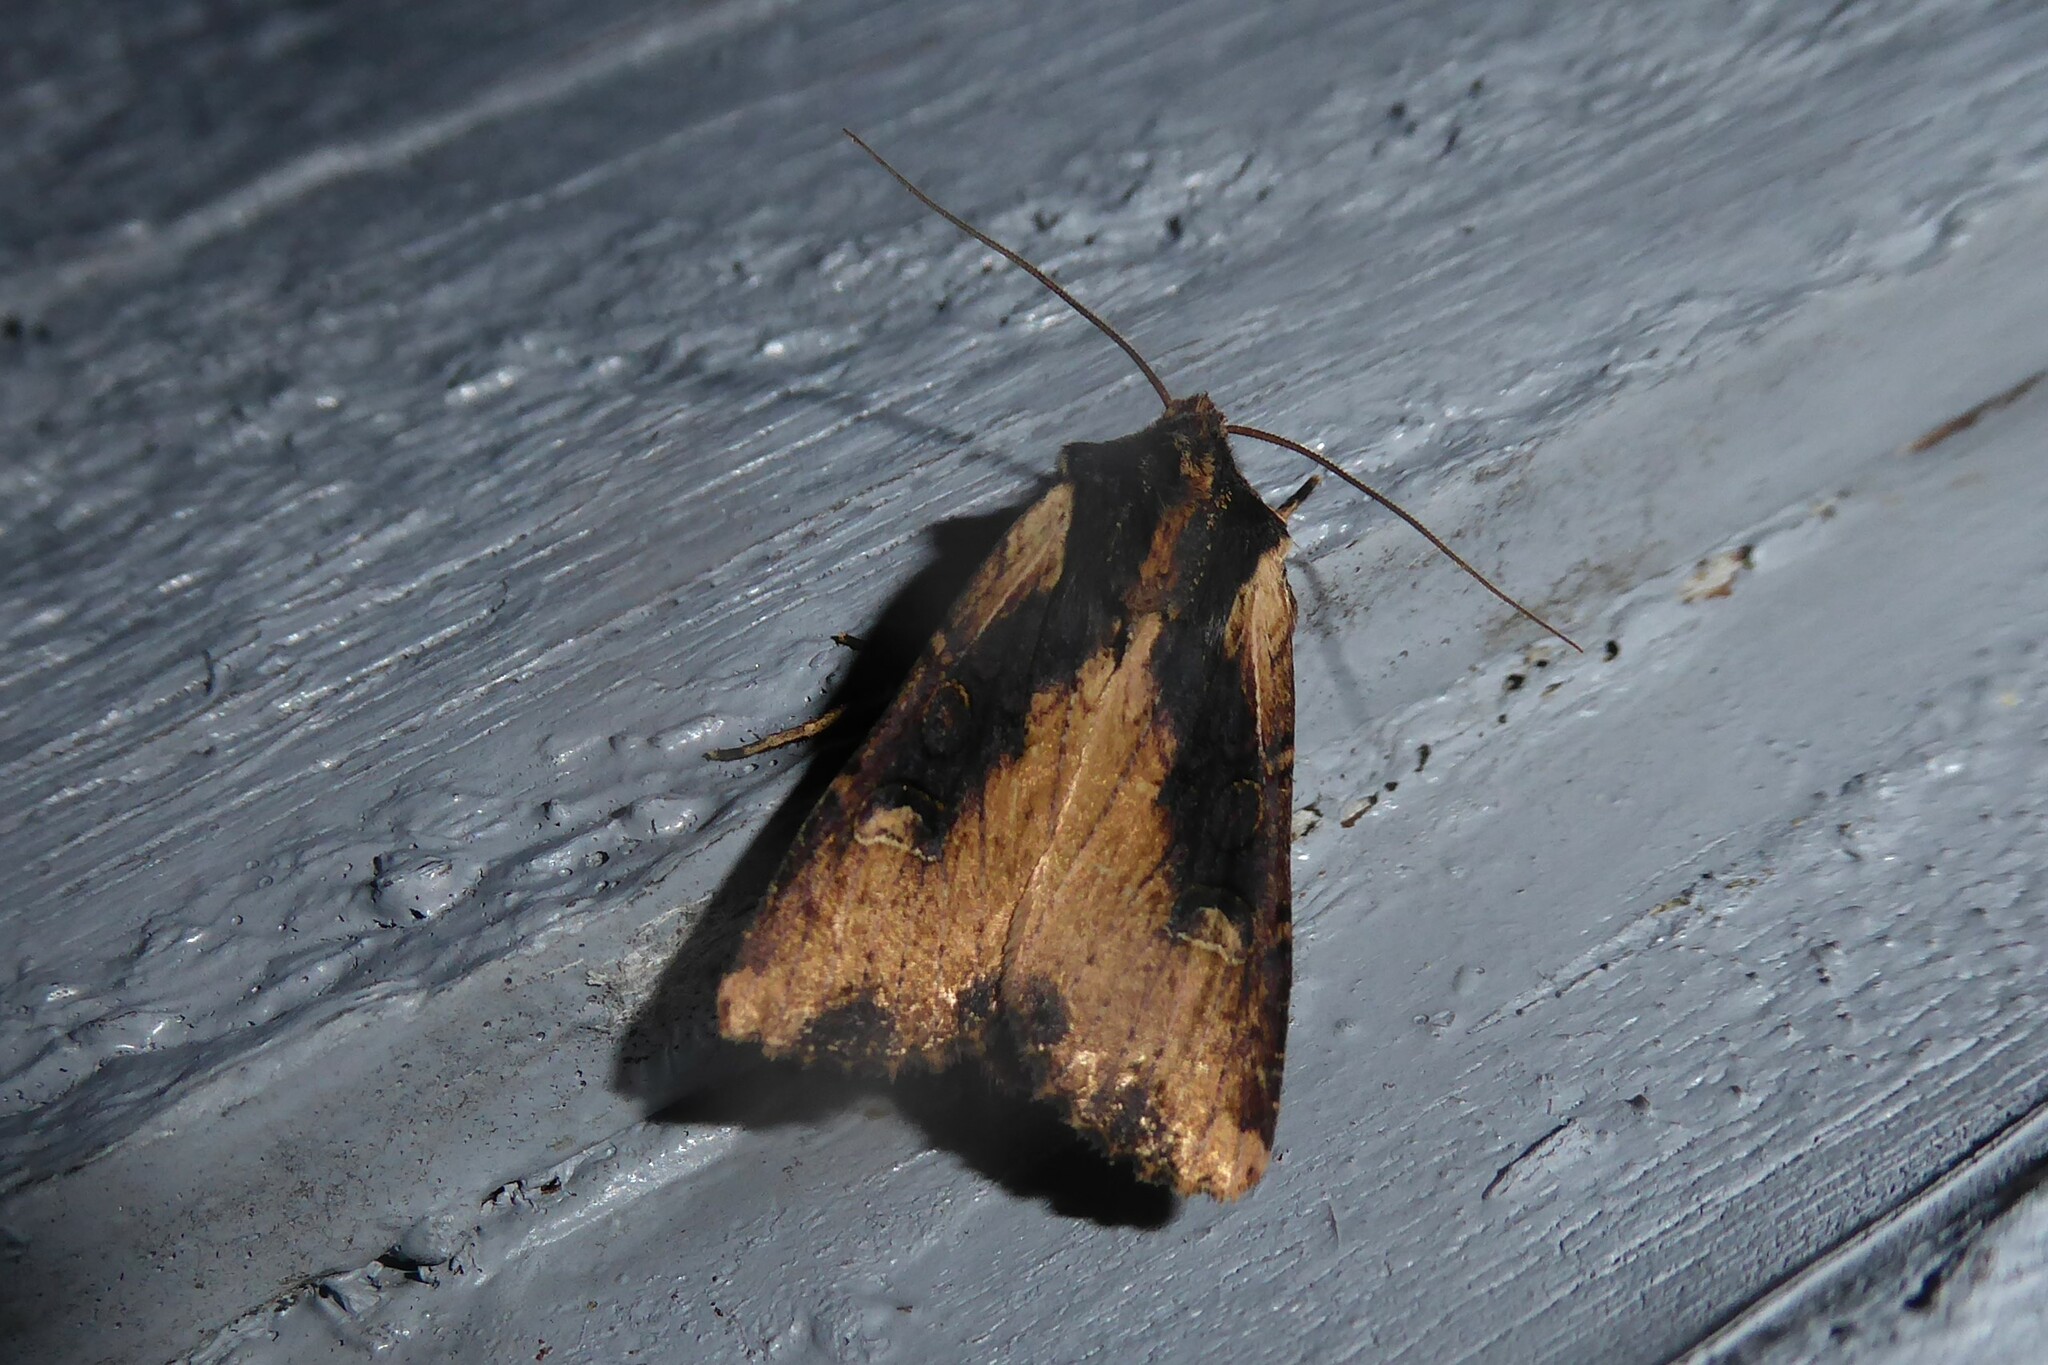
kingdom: Animalia
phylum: Arthropoda
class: Insecta
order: Lepidoptera
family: Noctuidae
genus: Ichneutica
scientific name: Ichneutica omoplaca
